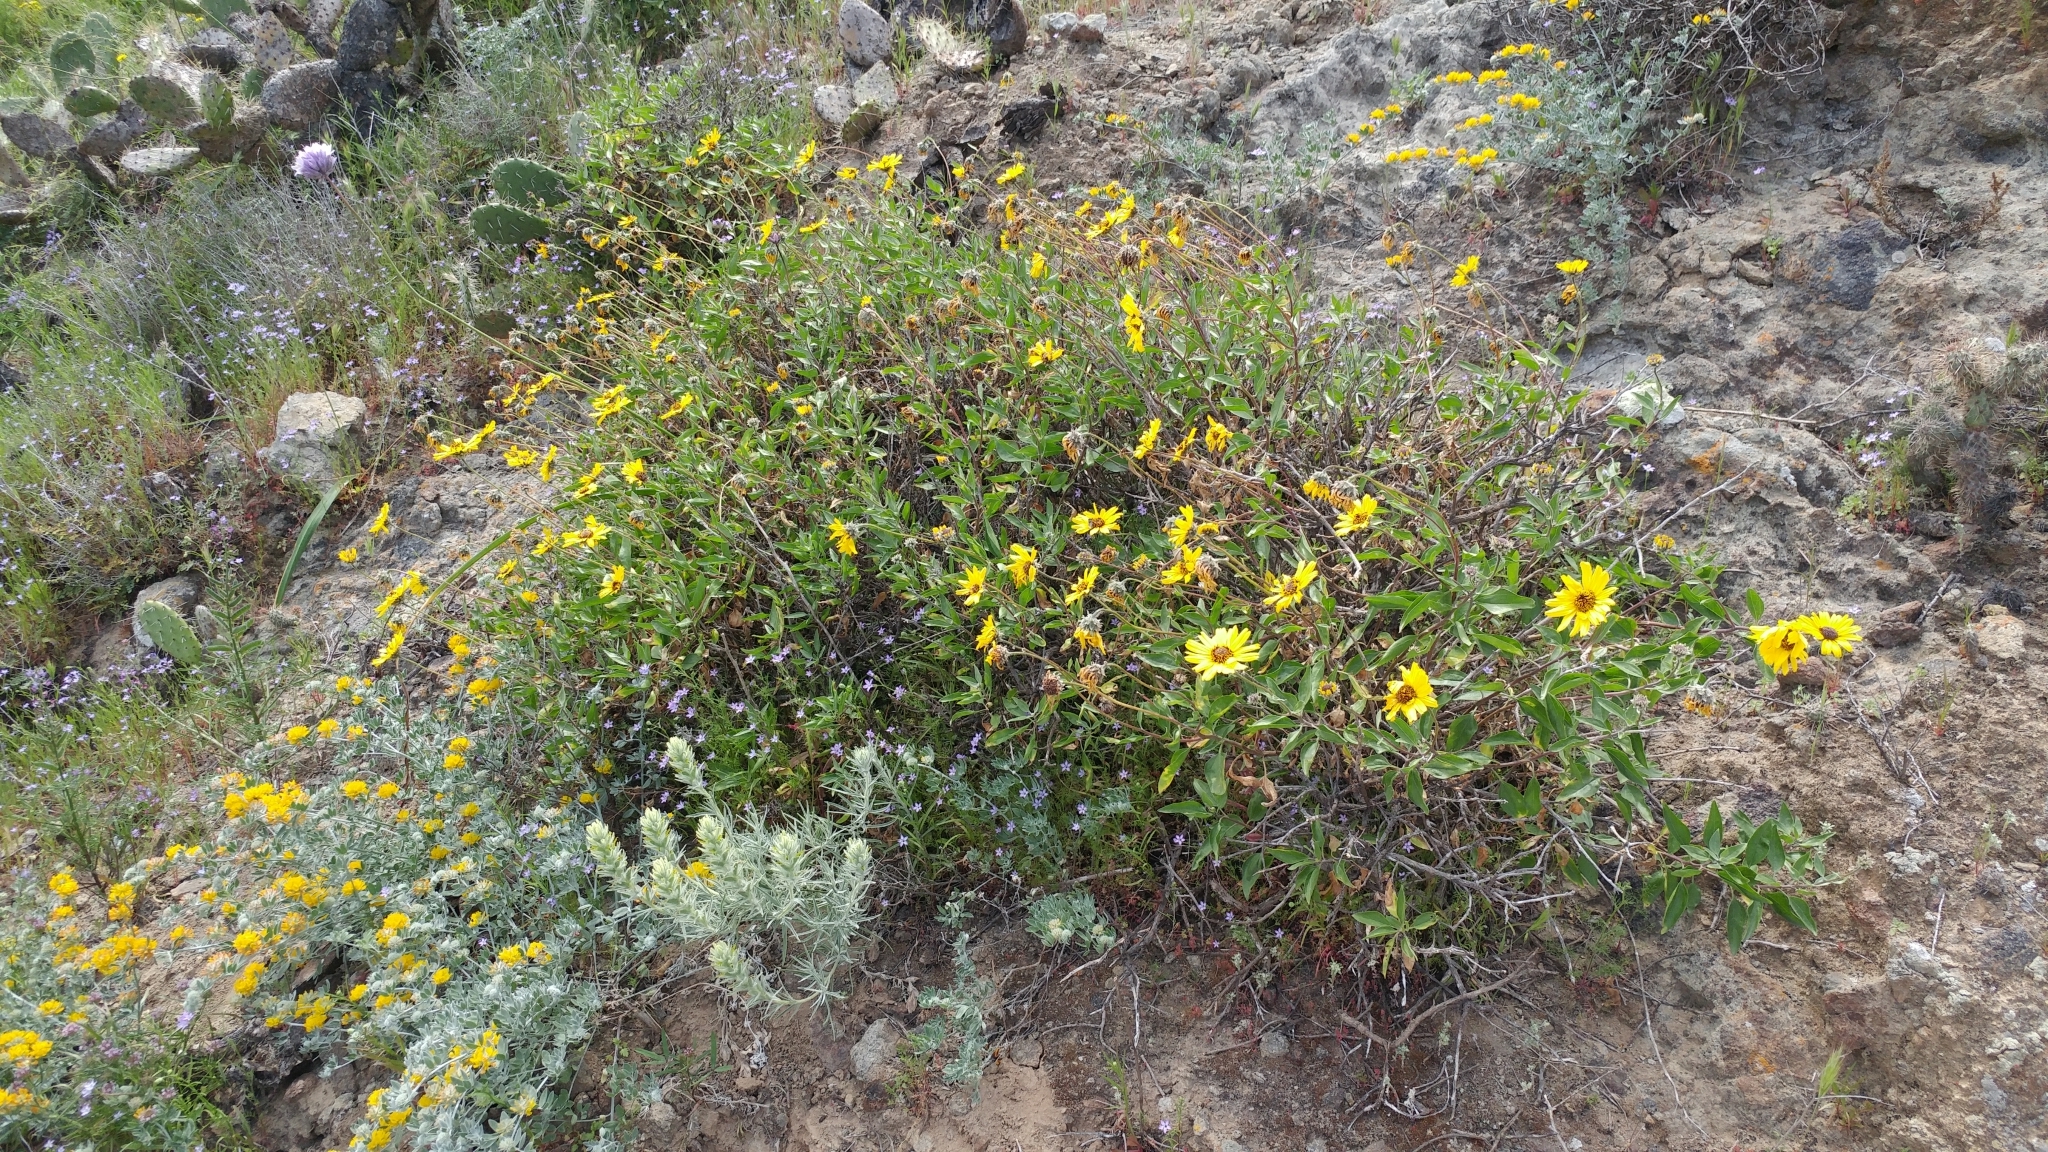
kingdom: Plantae
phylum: Tracheophyta
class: Magnoliopsida
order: Asterales
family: Asteraceae
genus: Encelia
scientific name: Encelia californica
